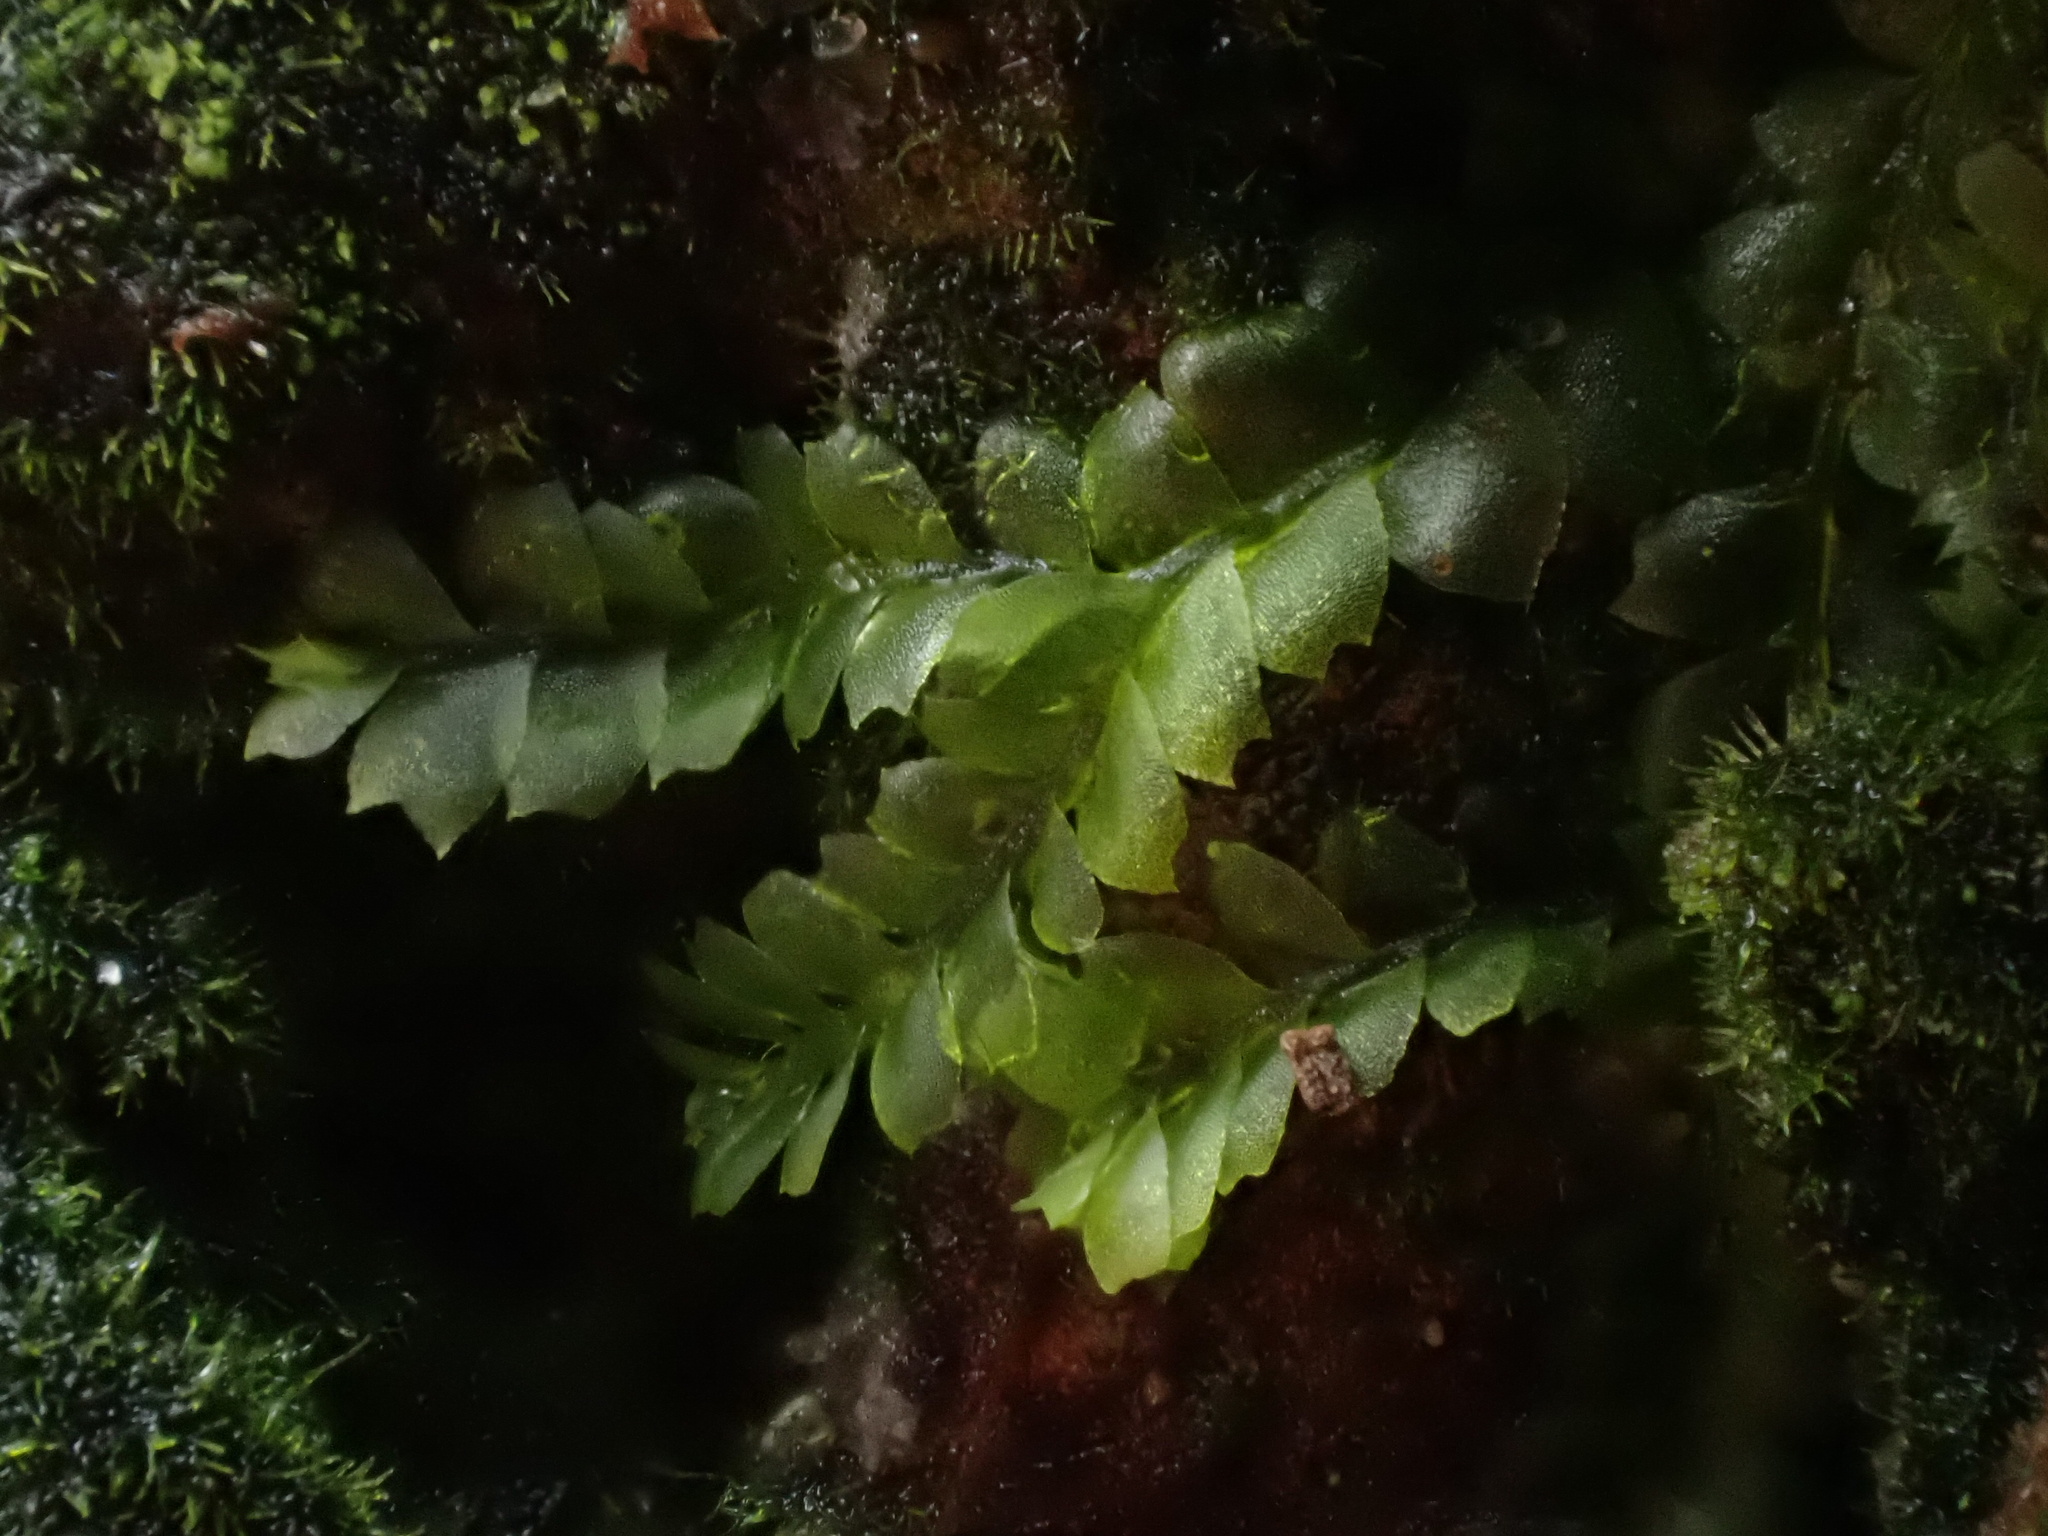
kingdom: Plantae
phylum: Marchantiophyta
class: Jungermanniopsida
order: Jungermanniales
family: Lophocoleaceae
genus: Lophocolea
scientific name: Lophocolea heterophylla
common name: Variable-leaved crestwort
